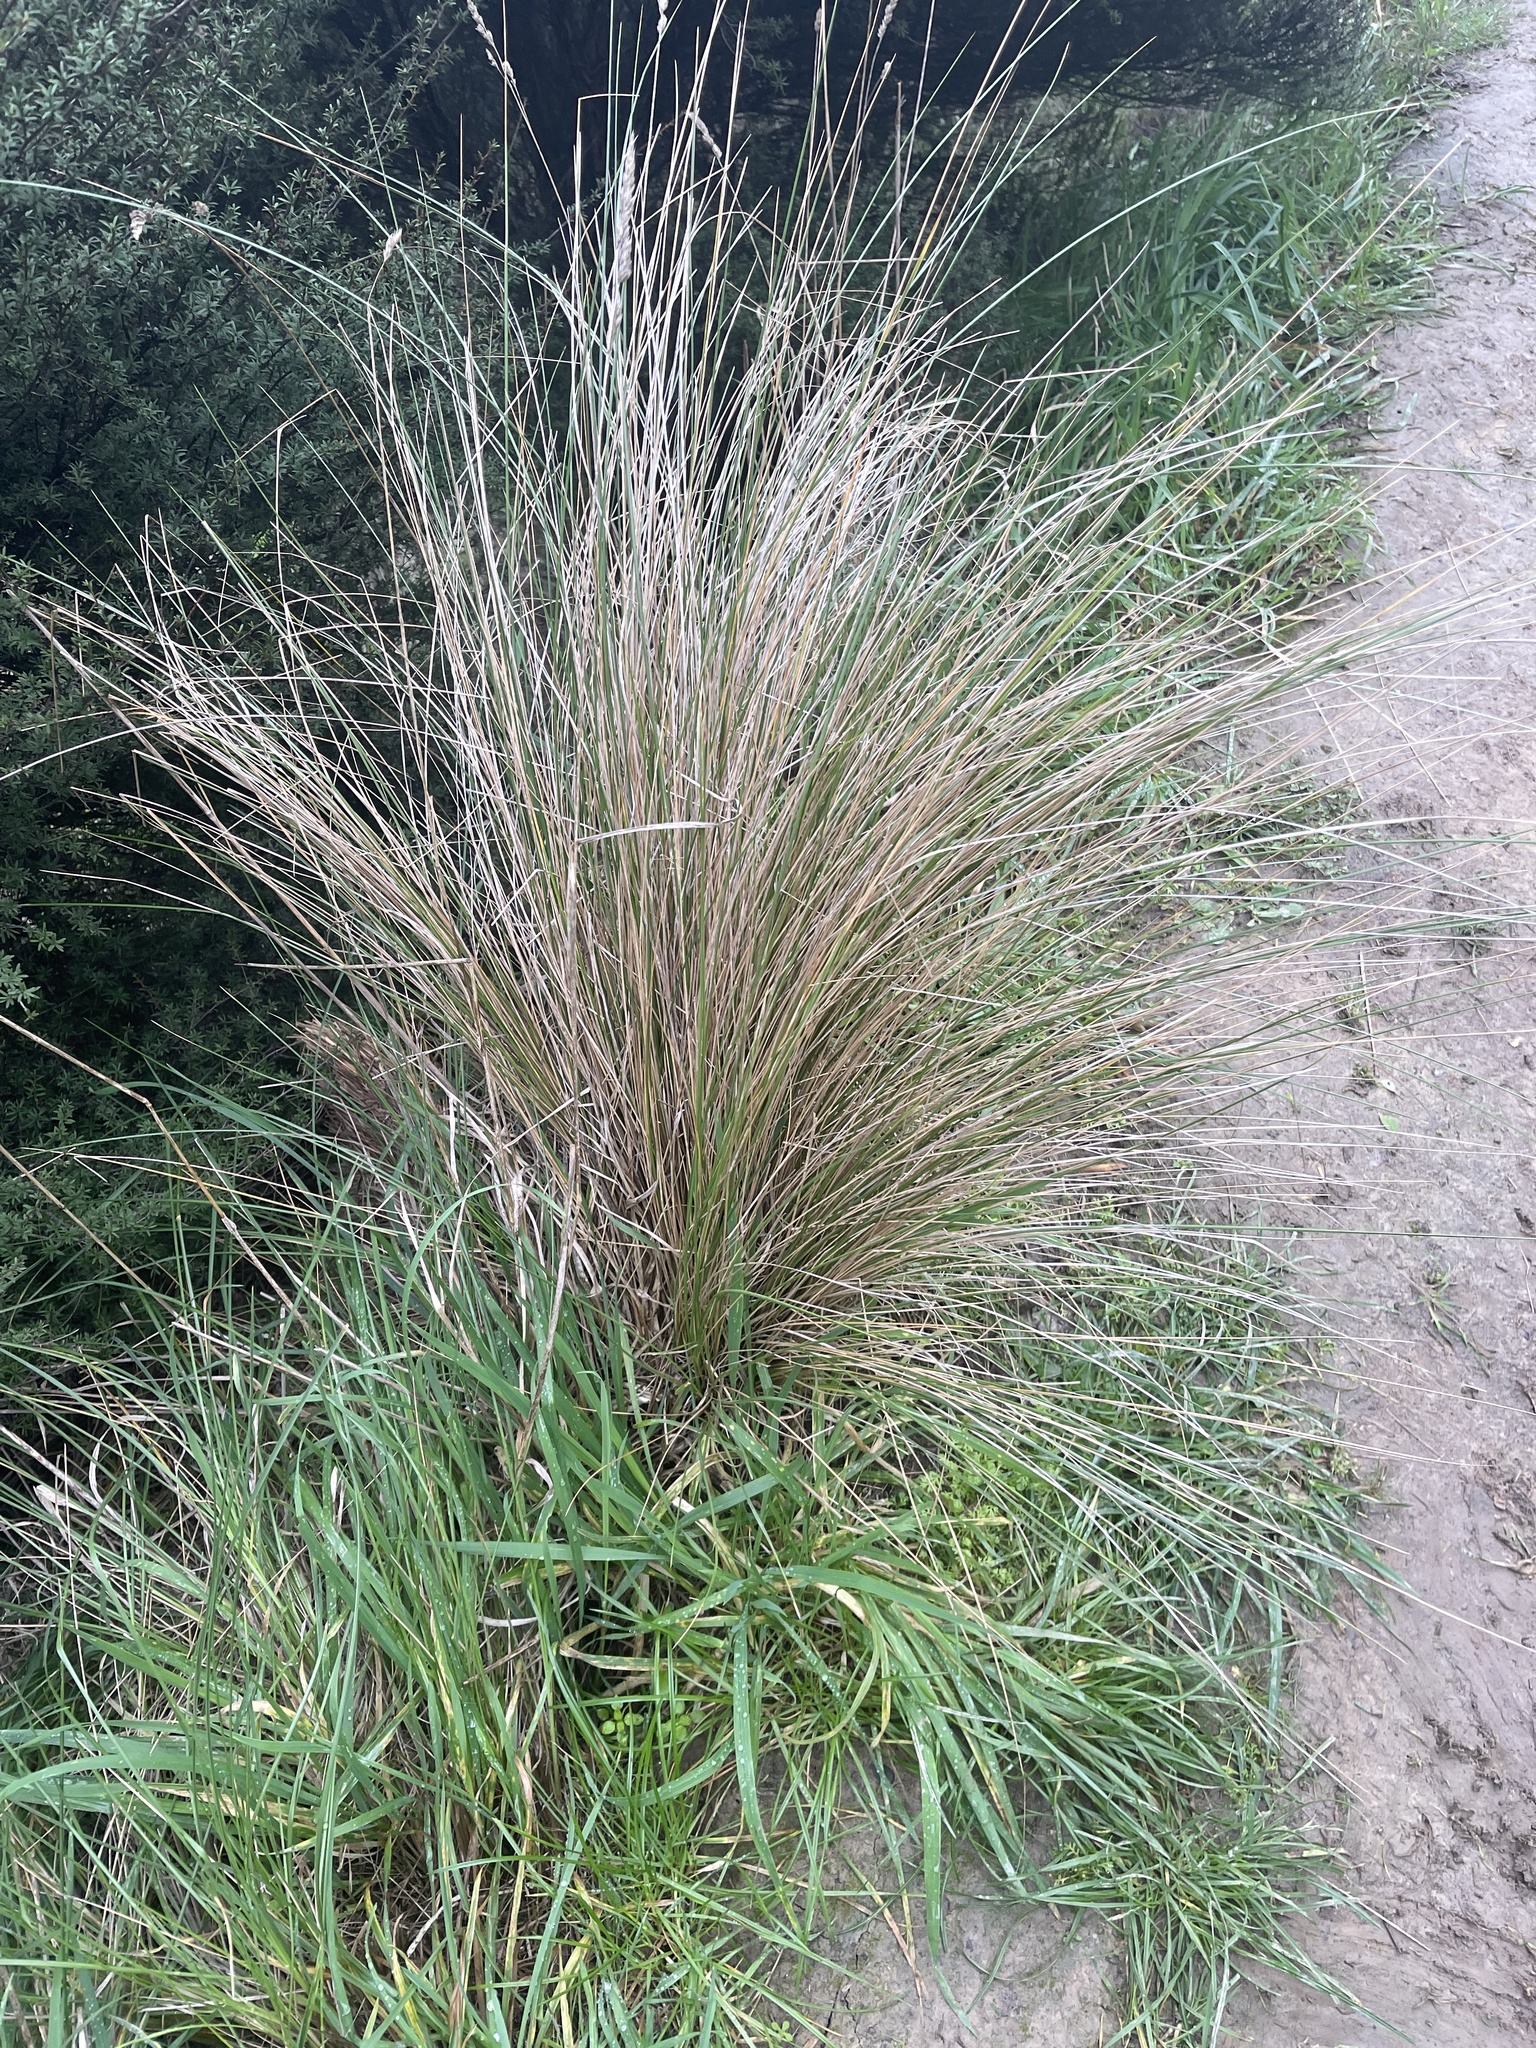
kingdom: Plantae
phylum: Tracheophyta
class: Liliopsida
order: Poales
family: Poaceae
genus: Poa
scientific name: Poa cita
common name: Silver tussock
